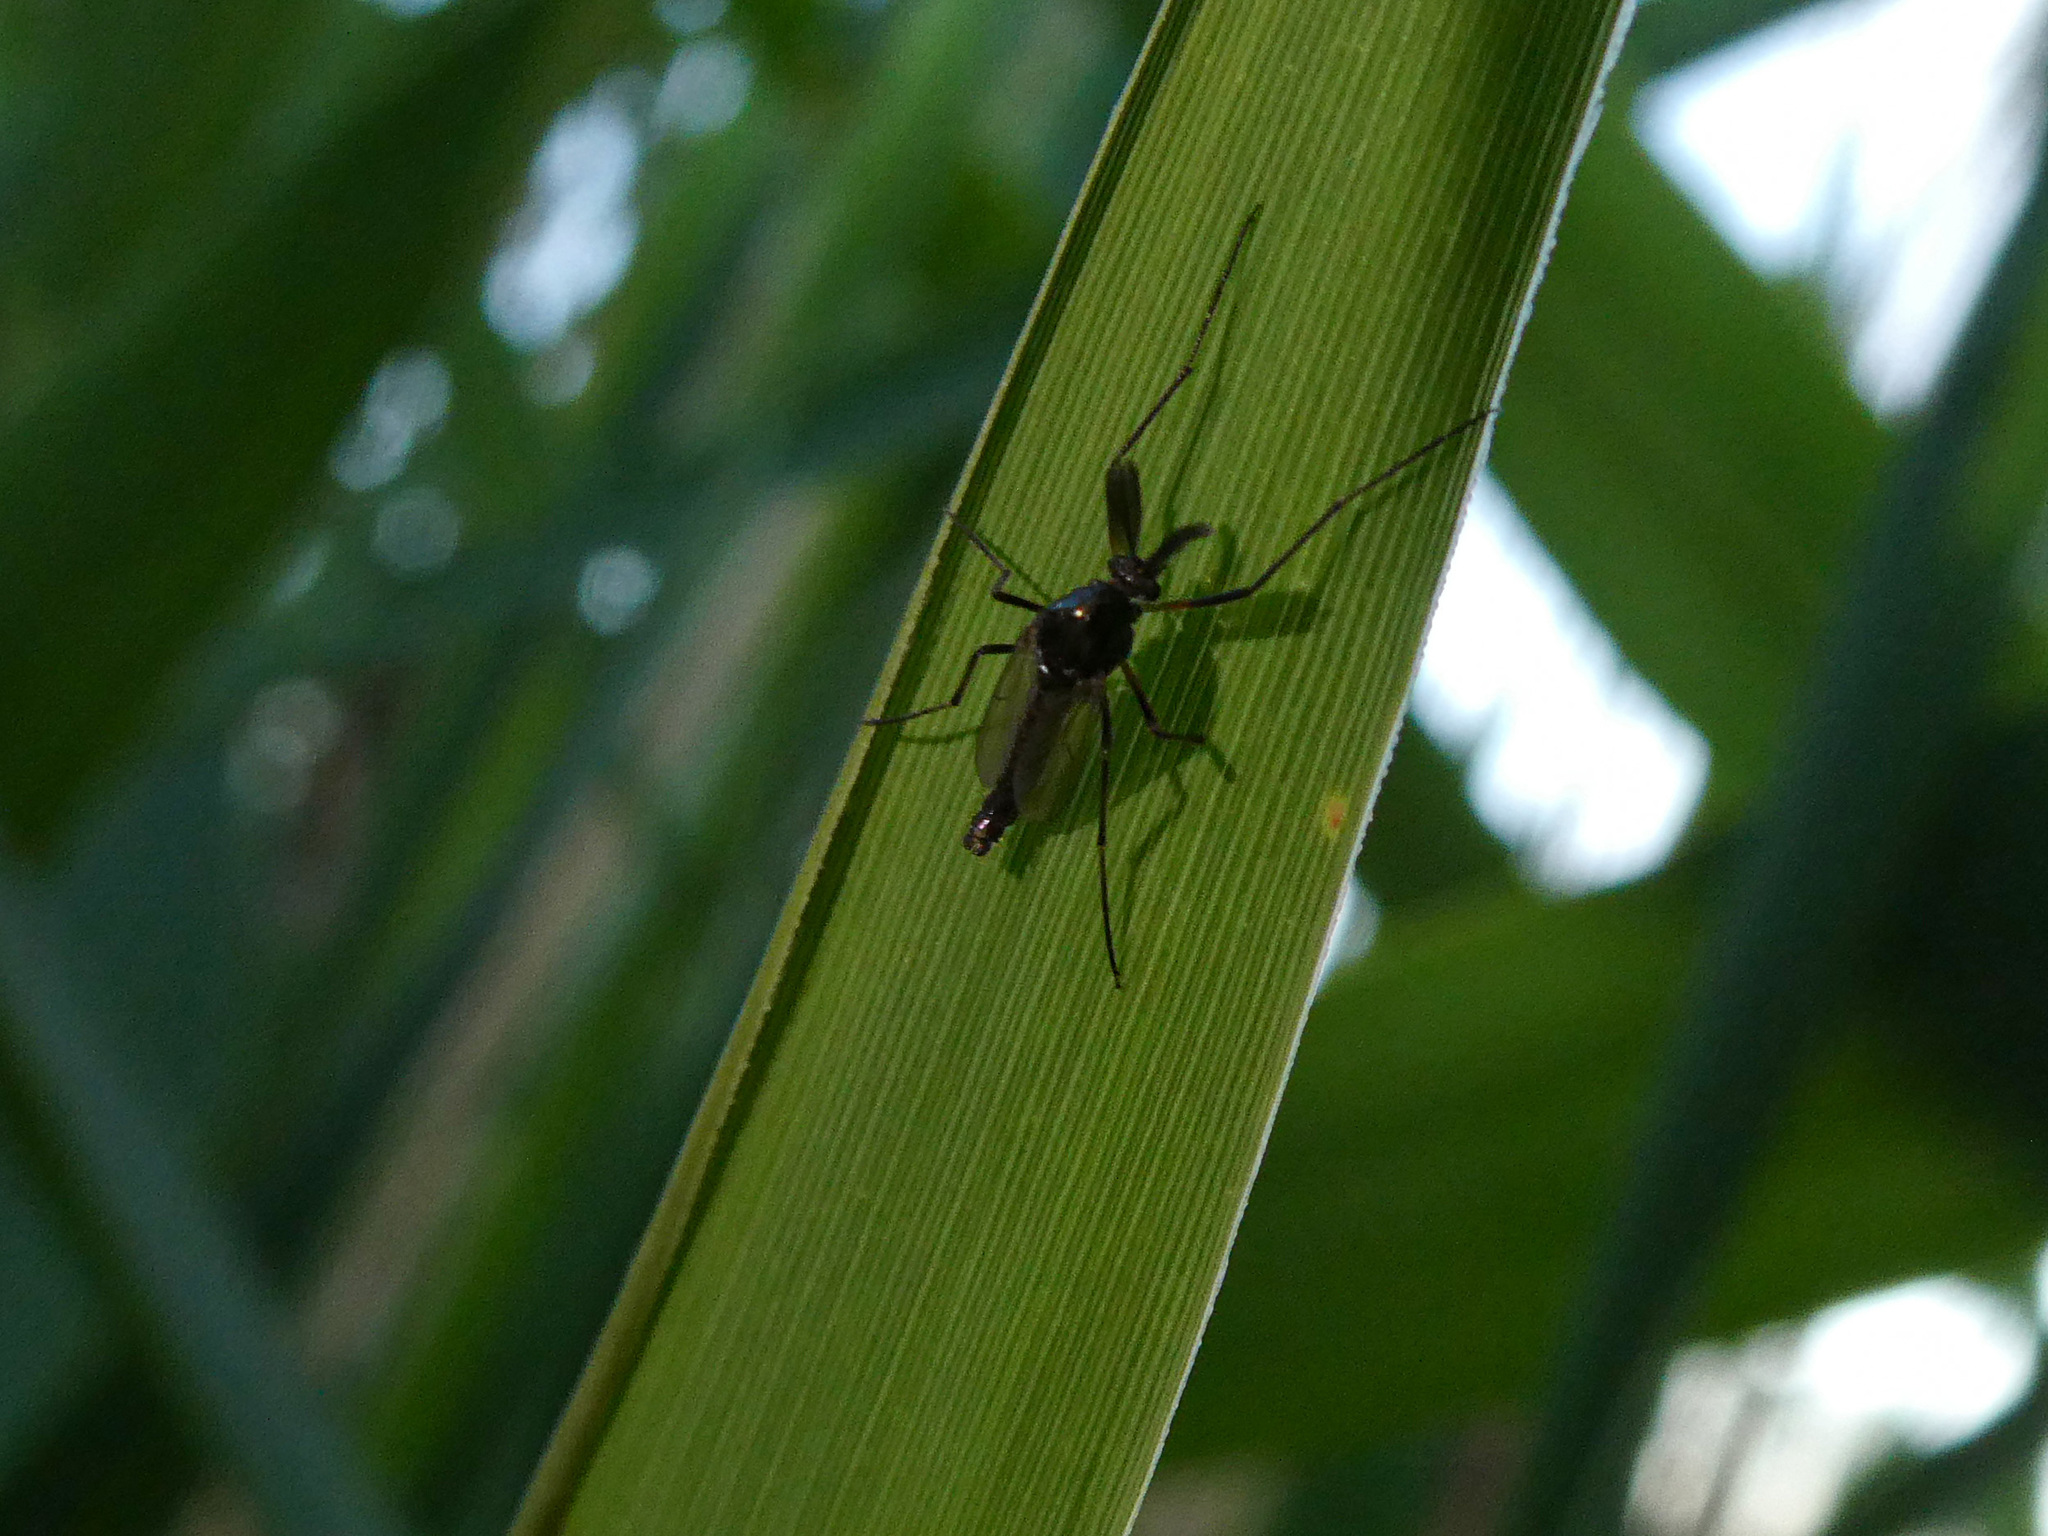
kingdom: Animalia
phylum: Arthropoda
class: Insecta
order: Diptera
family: Chironomidae
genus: Procladius
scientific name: Procladius
